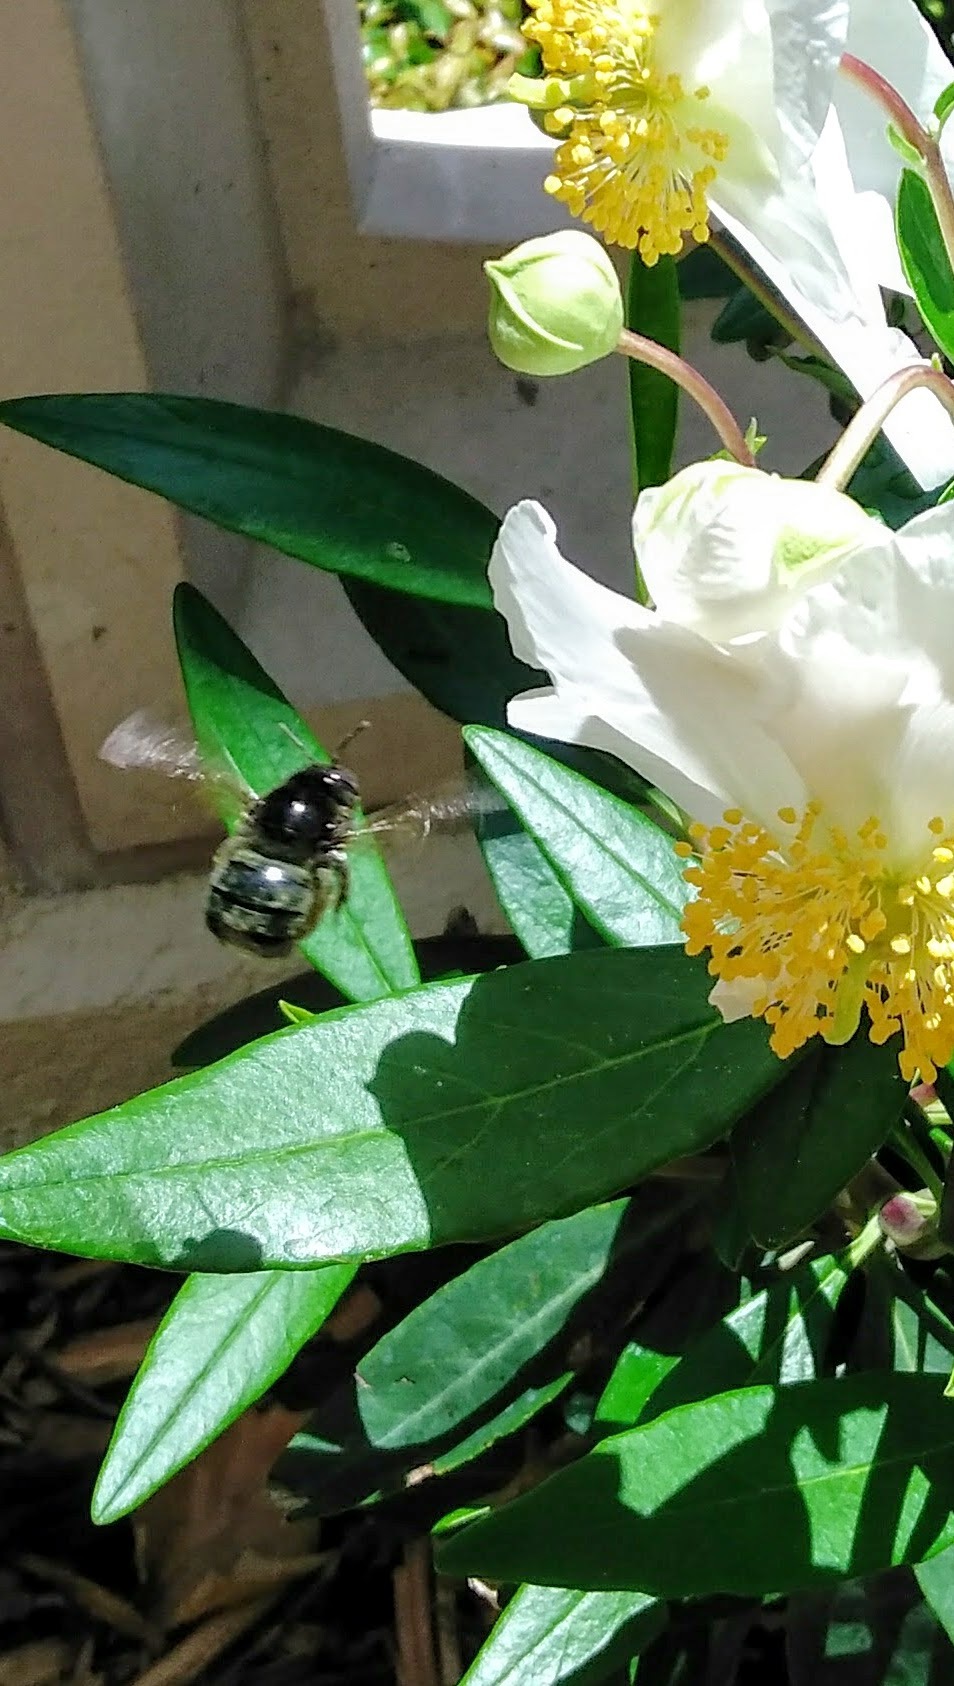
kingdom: Animalia
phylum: Arthropoda
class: Insecta
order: Hymenoptera
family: Apidae
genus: Xylocopa
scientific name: Xylocopa tabaniformis
